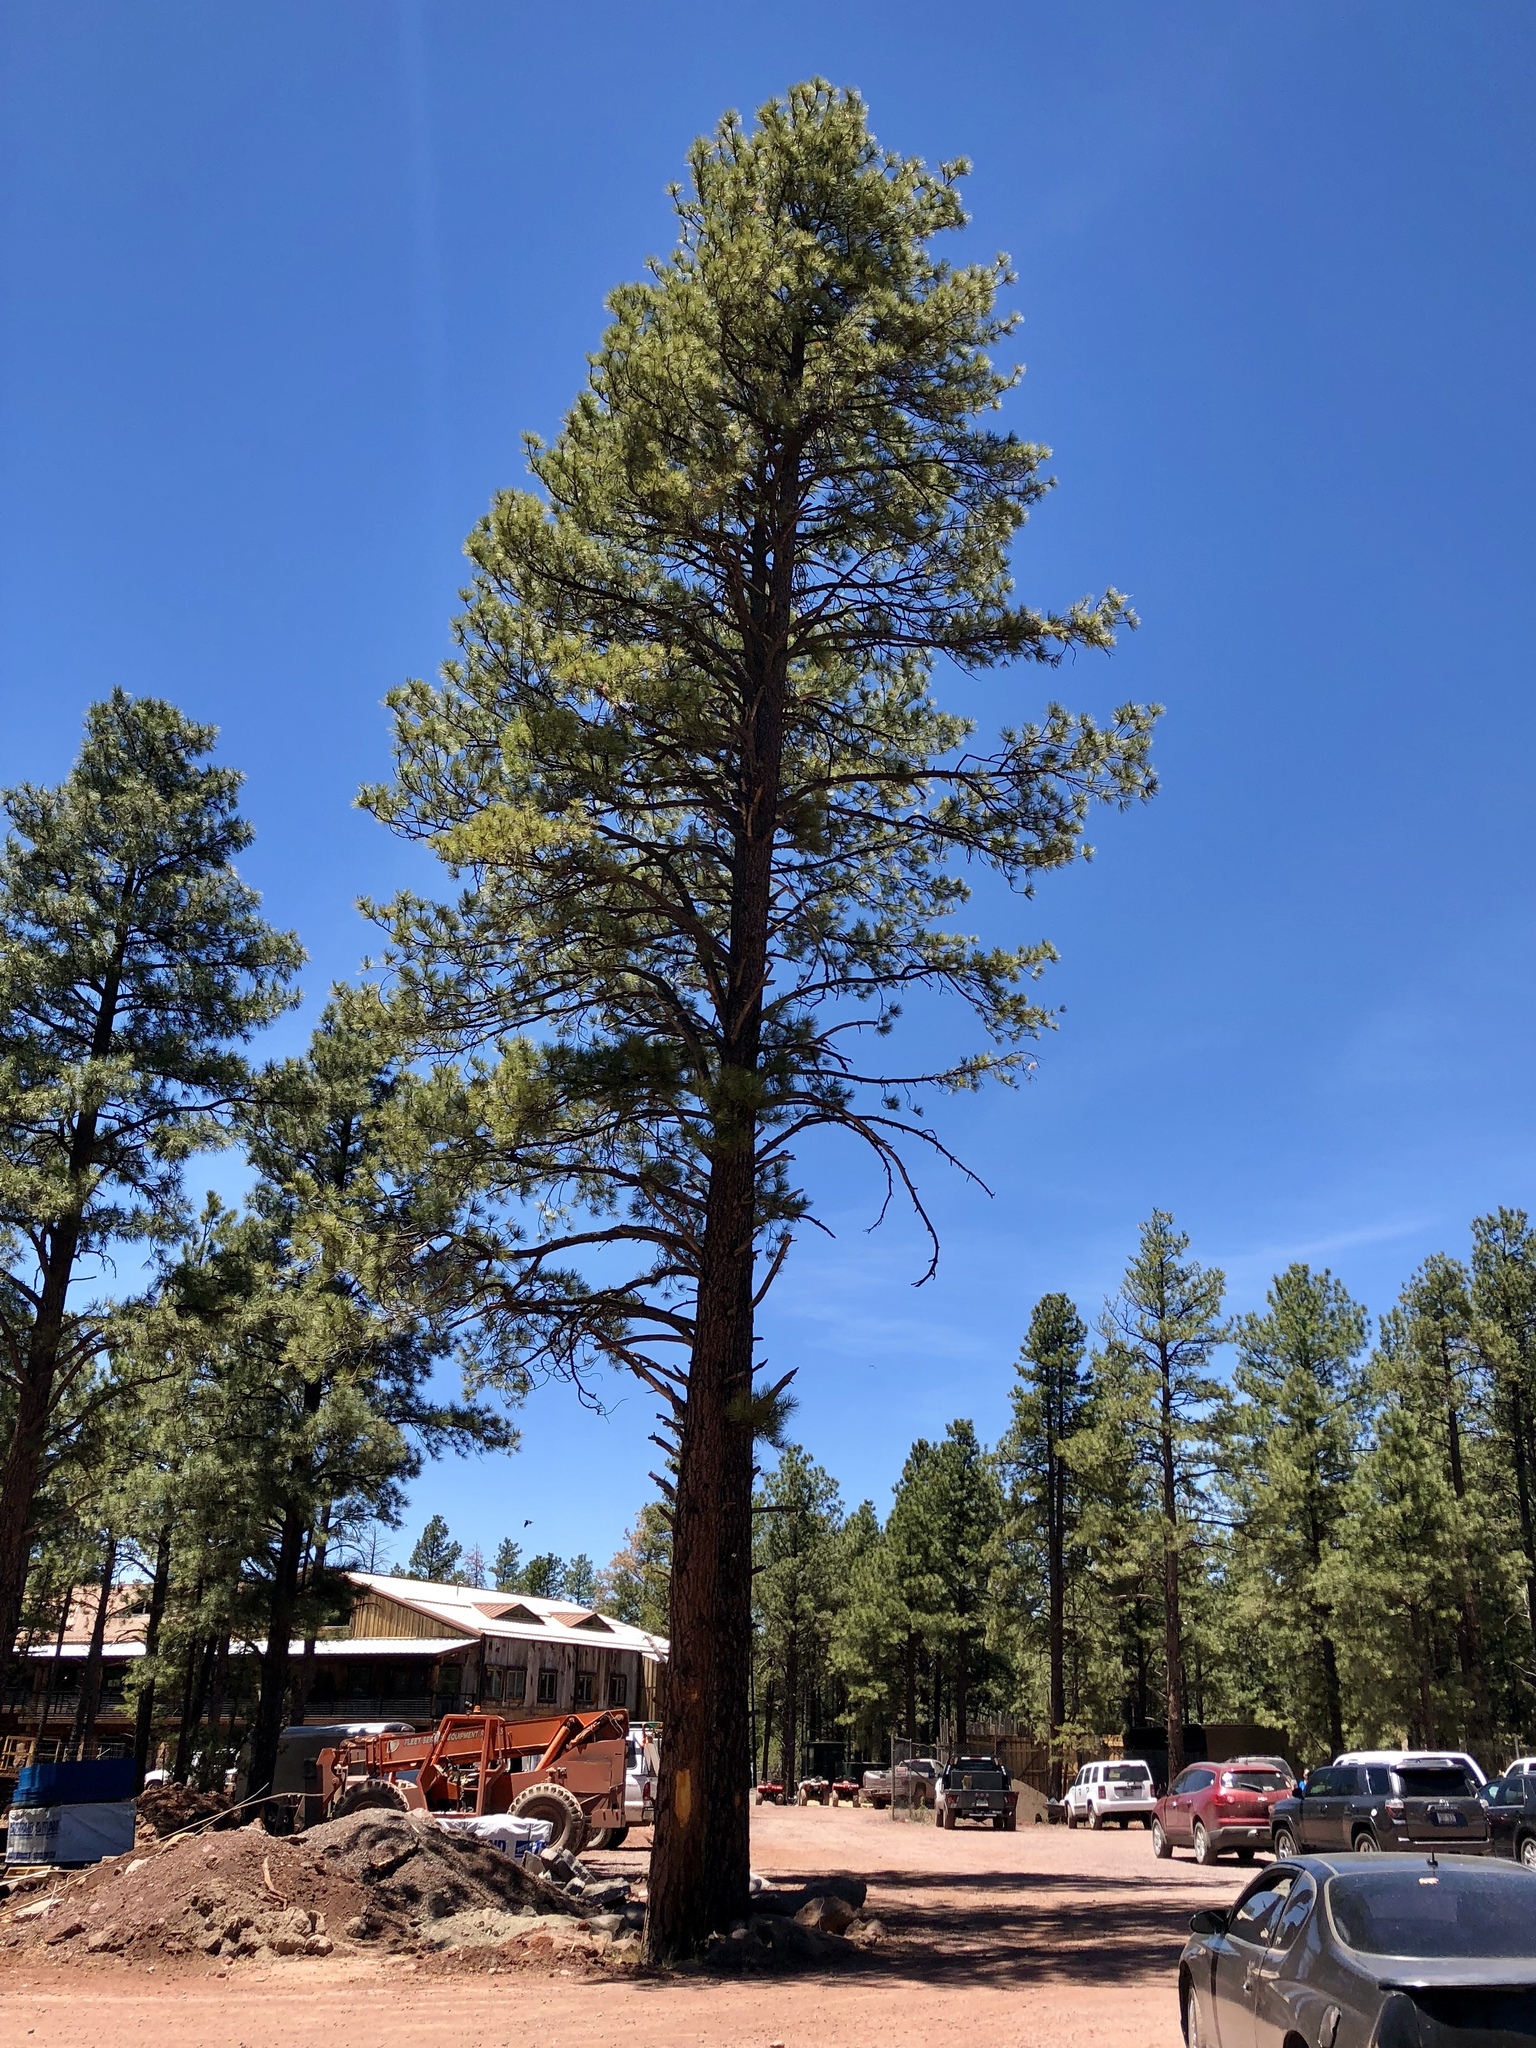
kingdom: Plantae
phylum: Tracheophyta
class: Pinopsida
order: Pinales
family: Pinaceae
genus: Pinus
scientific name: Pinus ponderosa
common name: Western yellow-pine
